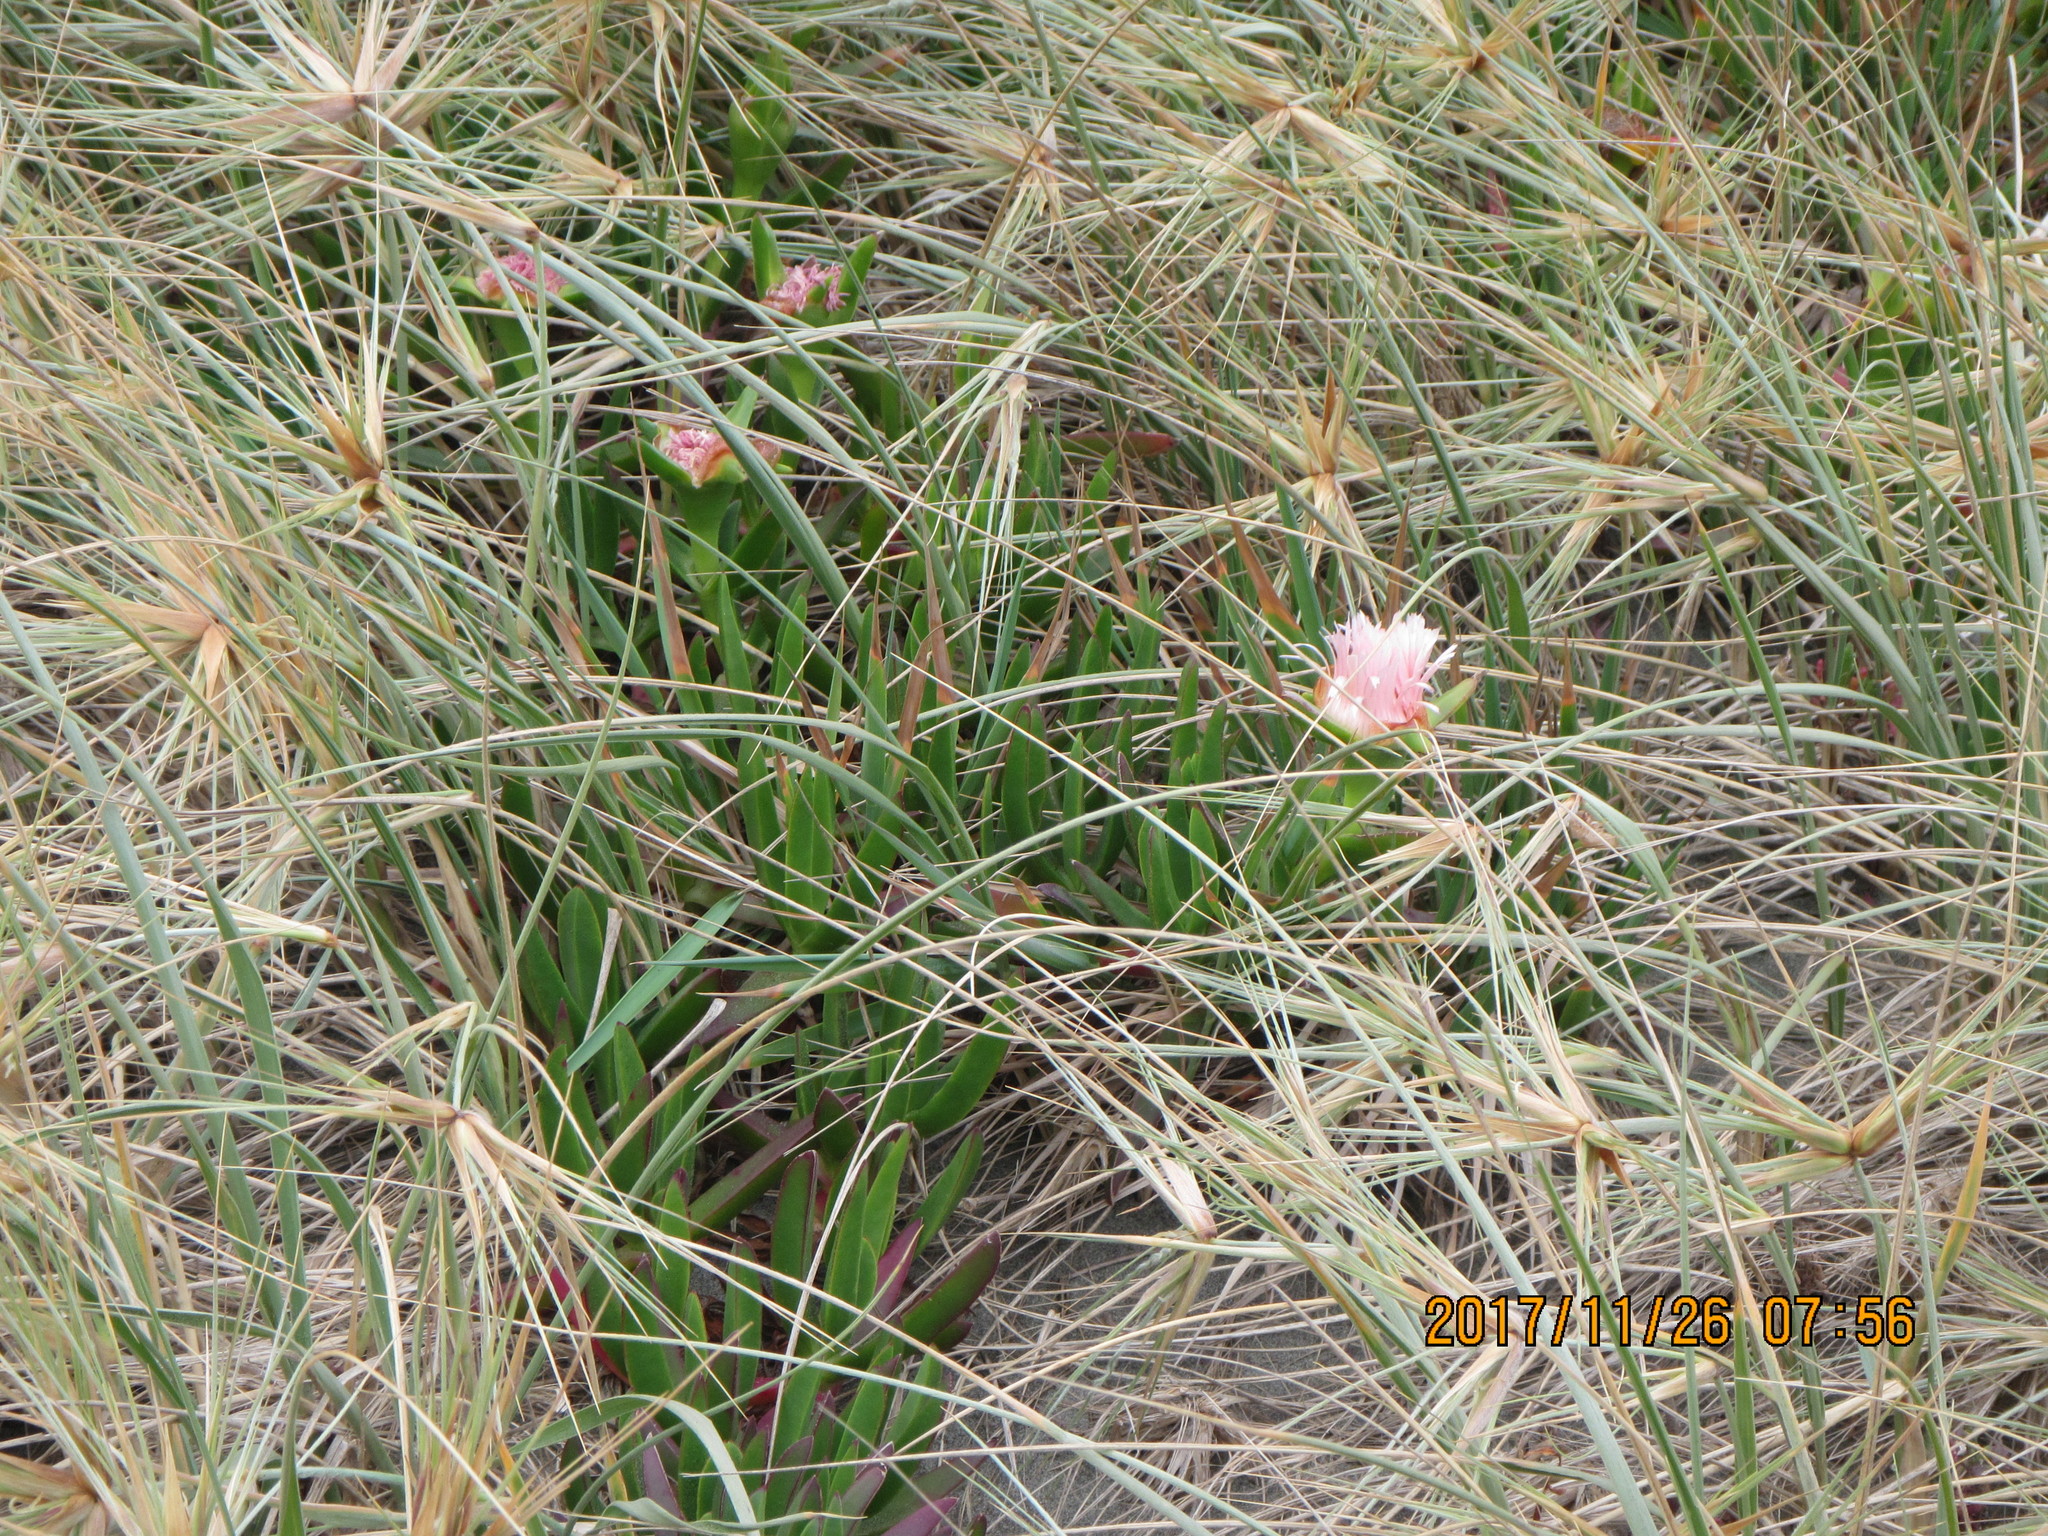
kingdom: Plantae
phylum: Tracheophyta
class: Magnoliopsida
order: Caryophyllales
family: Aizoaceae
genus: Carpobrotus
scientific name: Carpobrotus edulis
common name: Hottentot-fig
